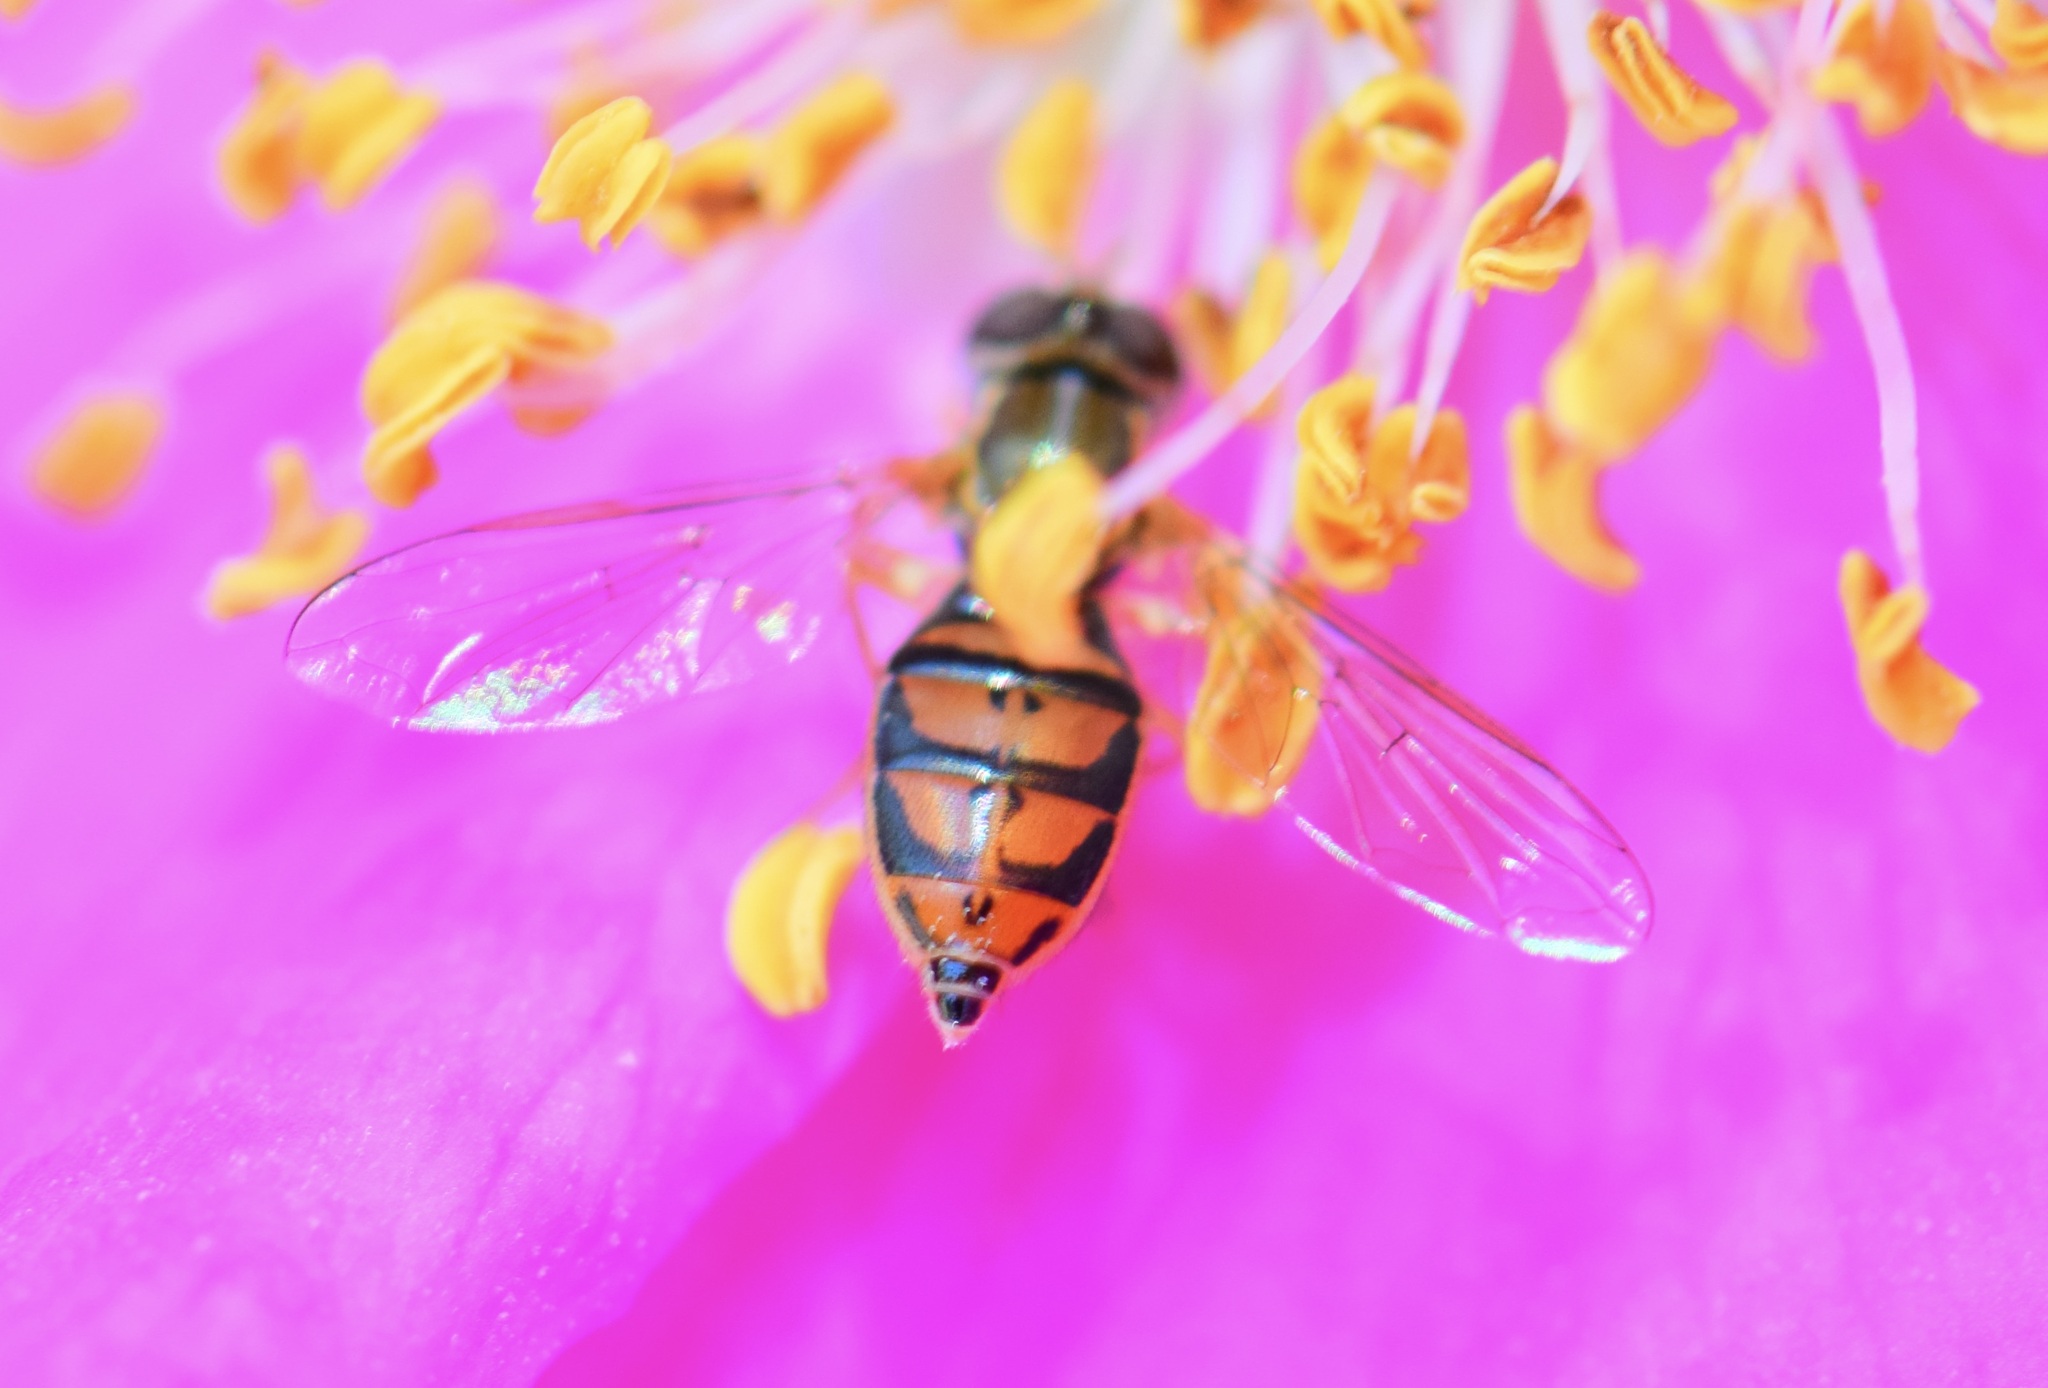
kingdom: Animalia
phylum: Arthropoda
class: Insecta
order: Diptera
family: Syrphidae
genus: Toxomerus
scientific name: Toxomerus marginatus
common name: Syrphid fly
